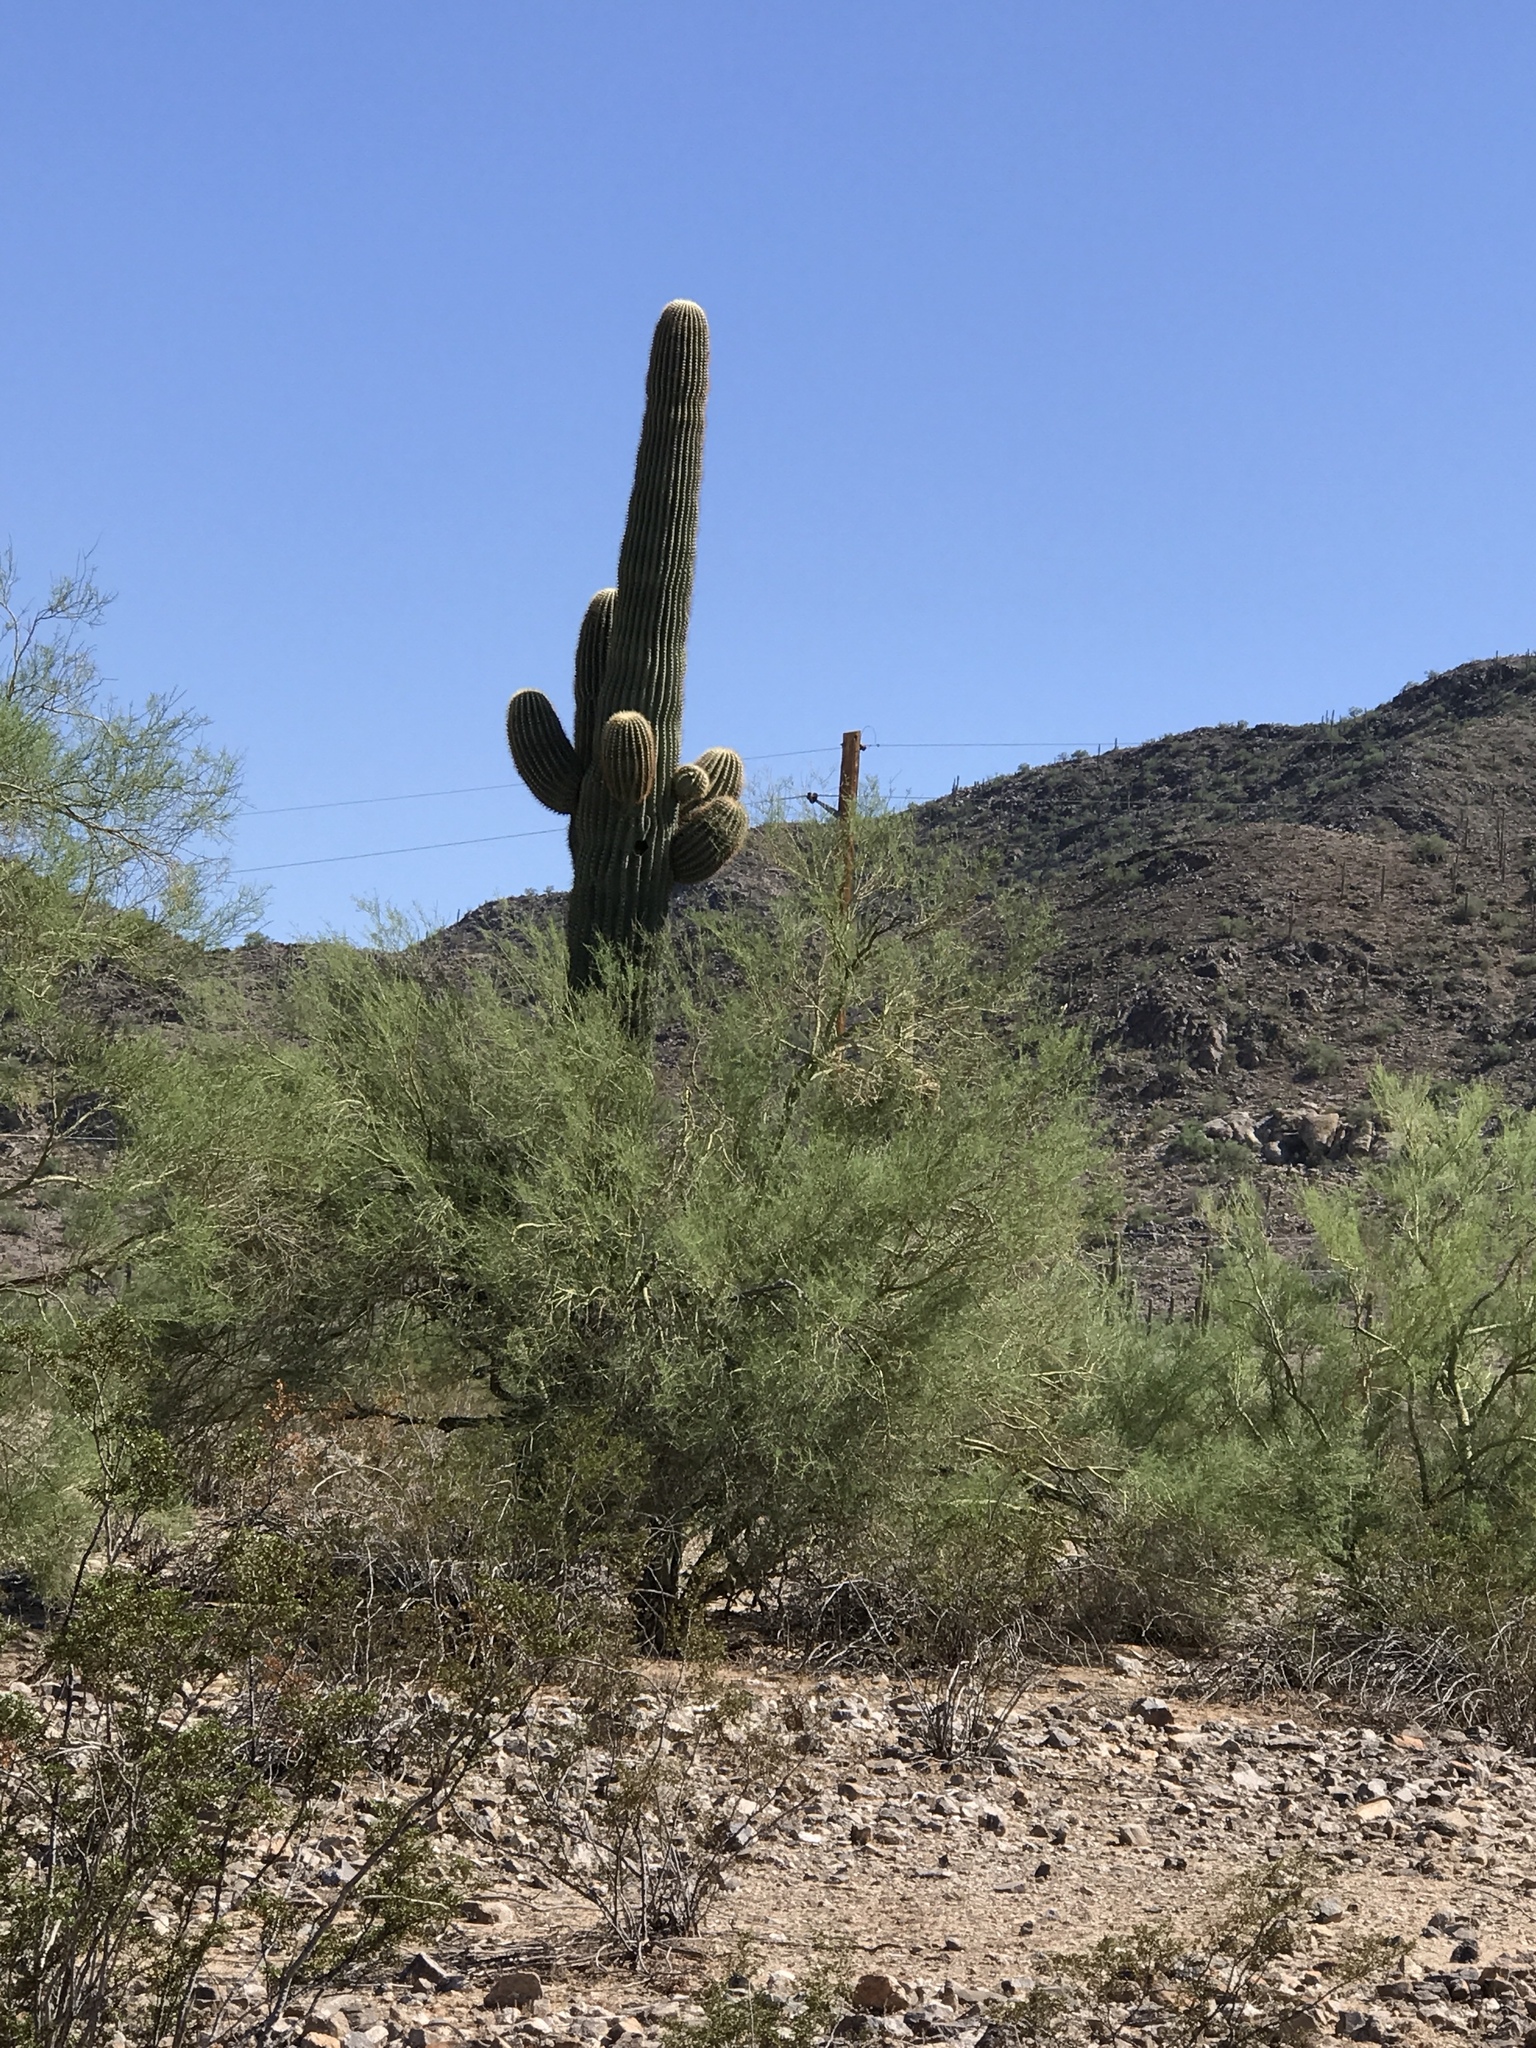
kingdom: Plantae
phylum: Tracheophyta
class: Magnoliopsida
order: Caryophyllales
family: Cactaceae
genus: Carnegiea
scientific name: Carnegiea gigantea
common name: Saguaro
